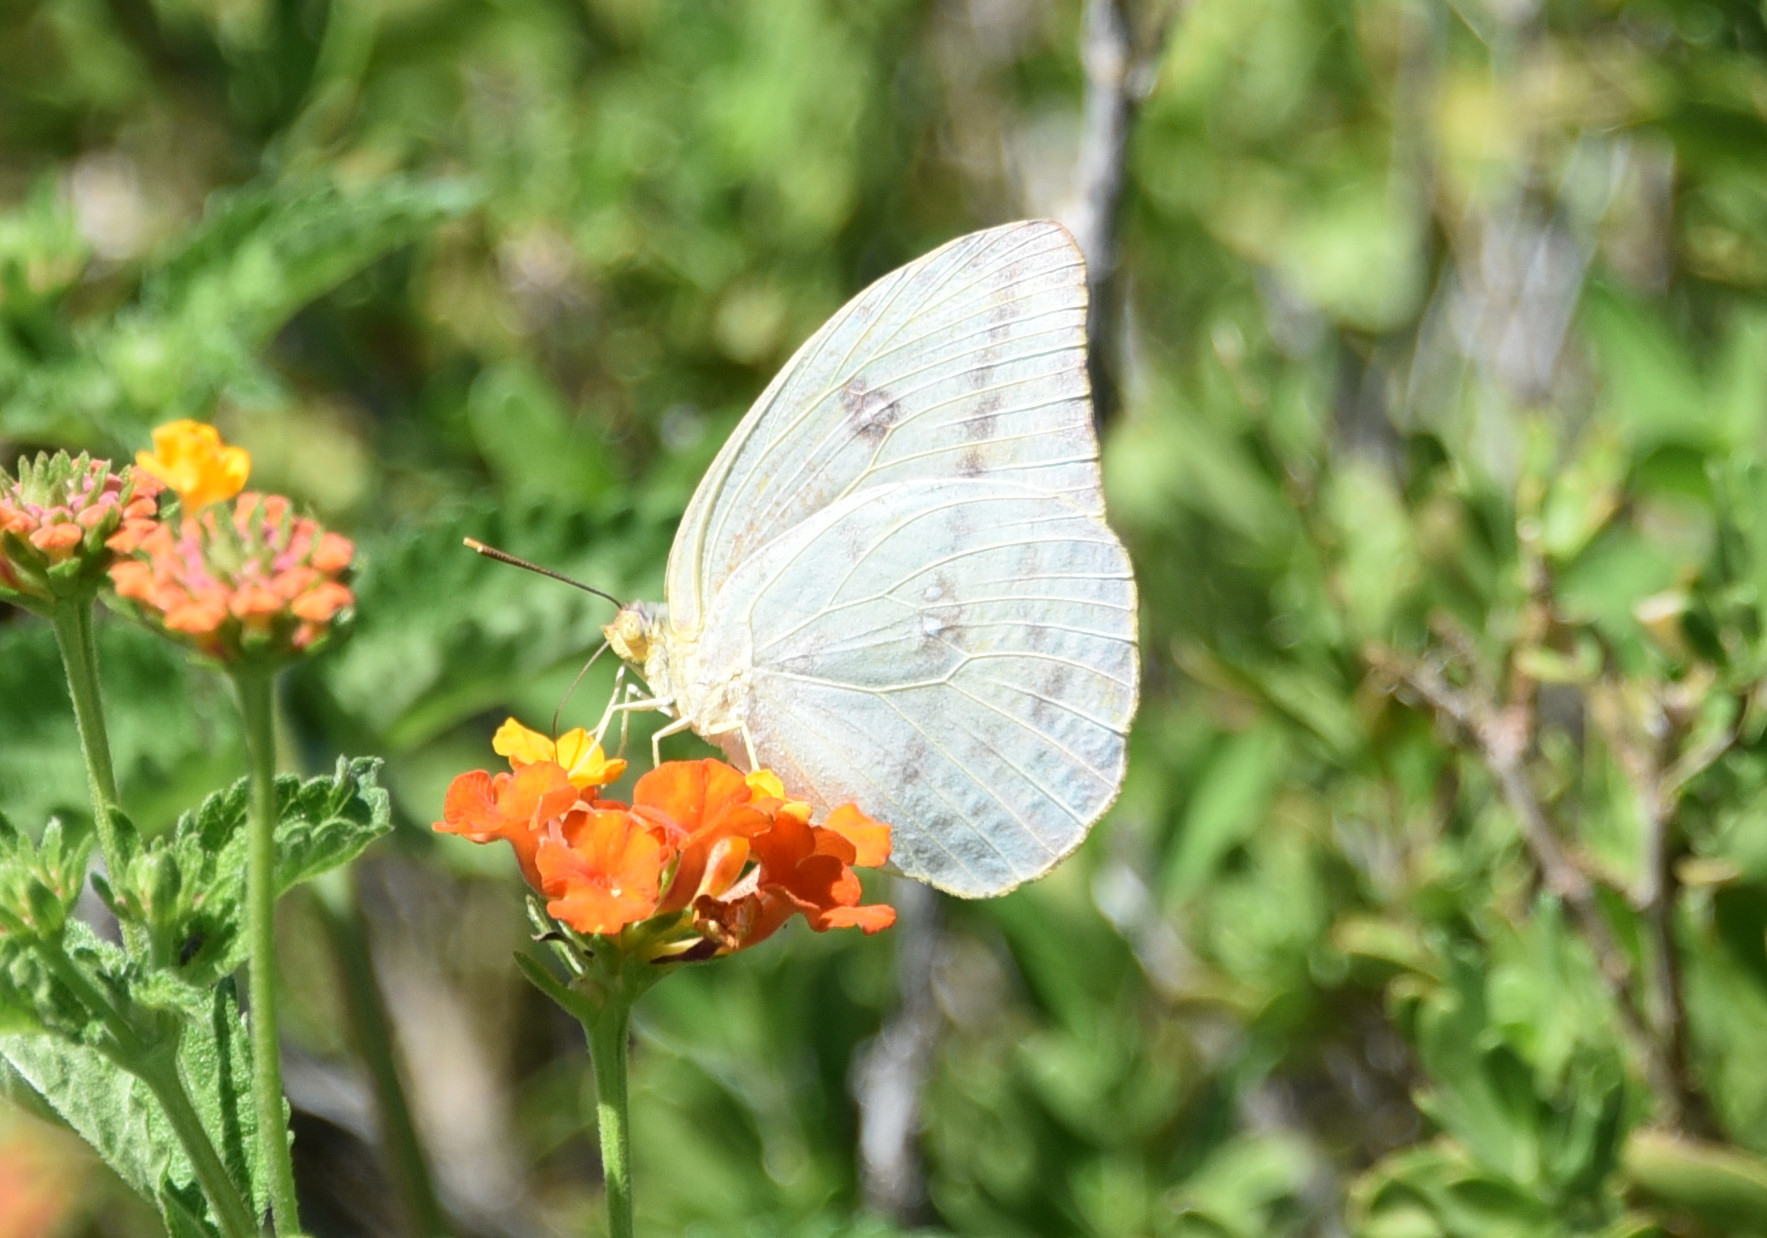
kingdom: Animalia
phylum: Arthropoda
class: Insecta
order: Lepidoptera
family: Pieridae
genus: Phoebis
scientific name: Phoebis agarithe
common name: Large orange sulphur
